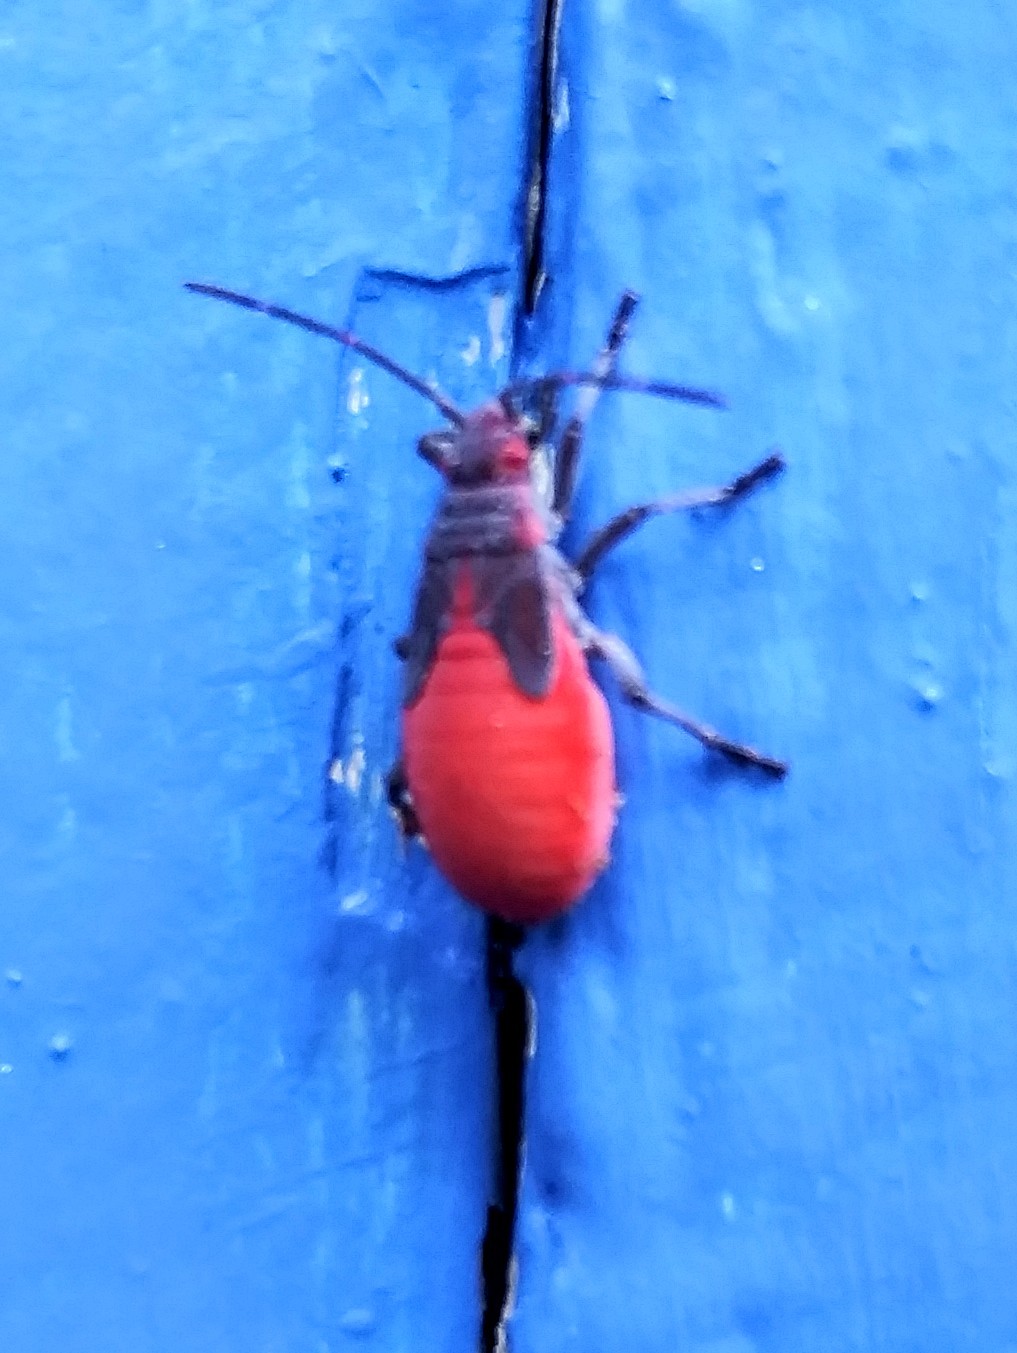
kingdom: Animalia
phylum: Arthropoda
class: Insecta
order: Hemiptera
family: Rhopalidae
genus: Jadera
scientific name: Jadera haematoloma
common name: Red-shouldered bug
